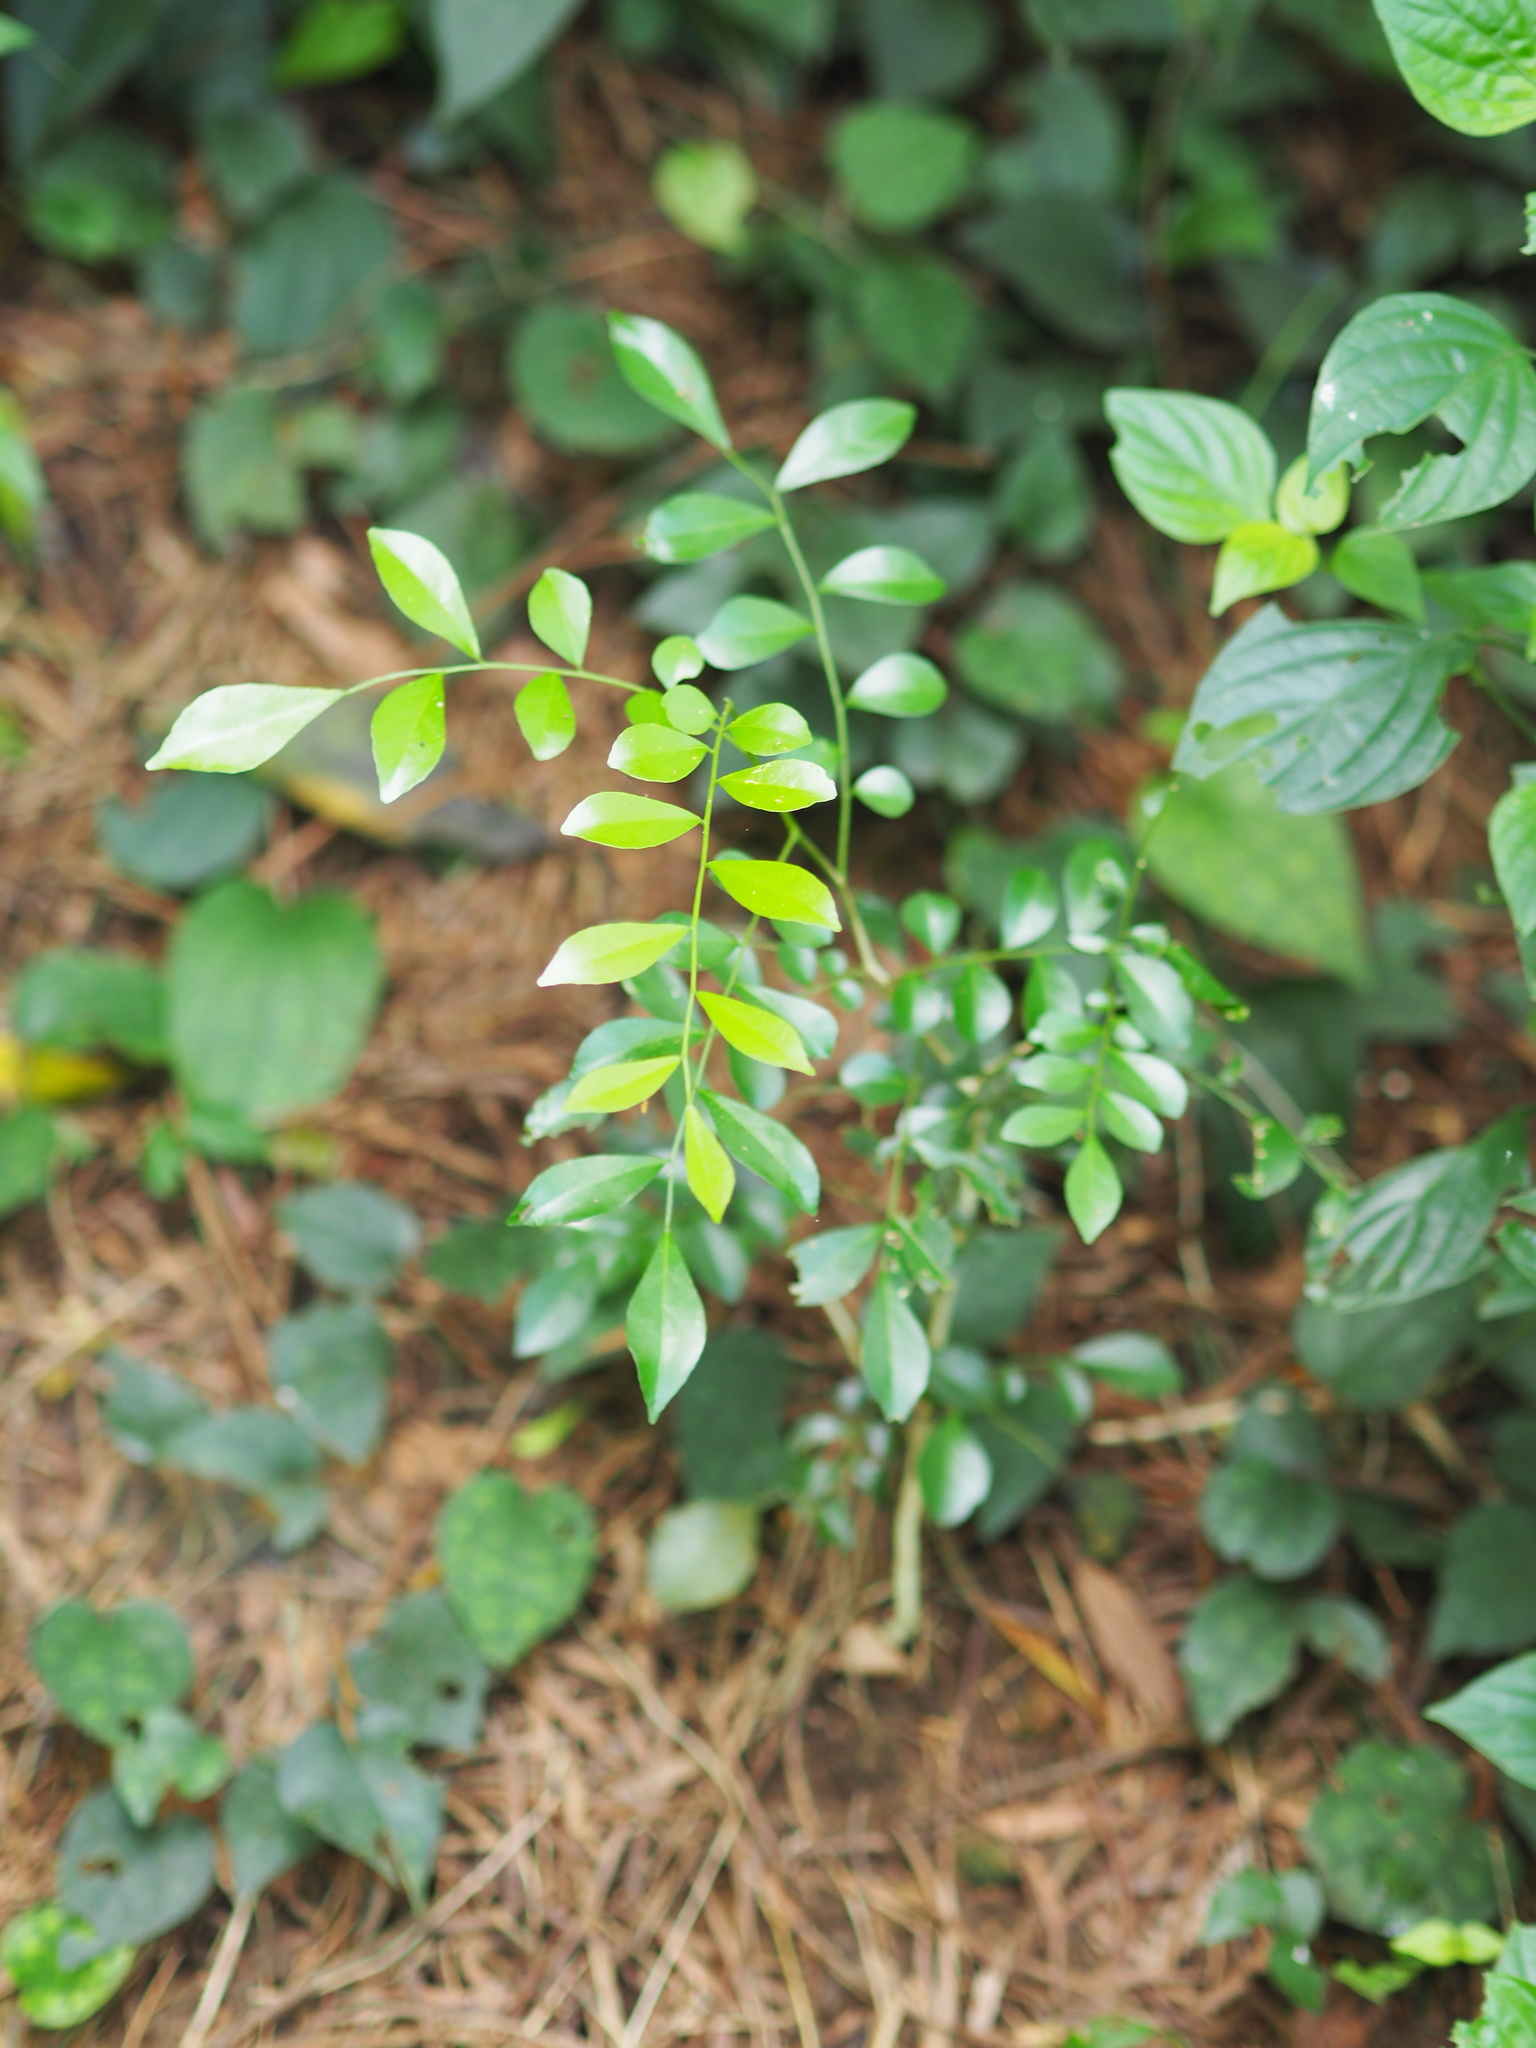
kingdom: Plantae
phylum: Tracheophyta
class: Magnoliopsida
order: Sapindales
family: Rutaceae
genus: Murraya
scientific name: Murraya paniculata
